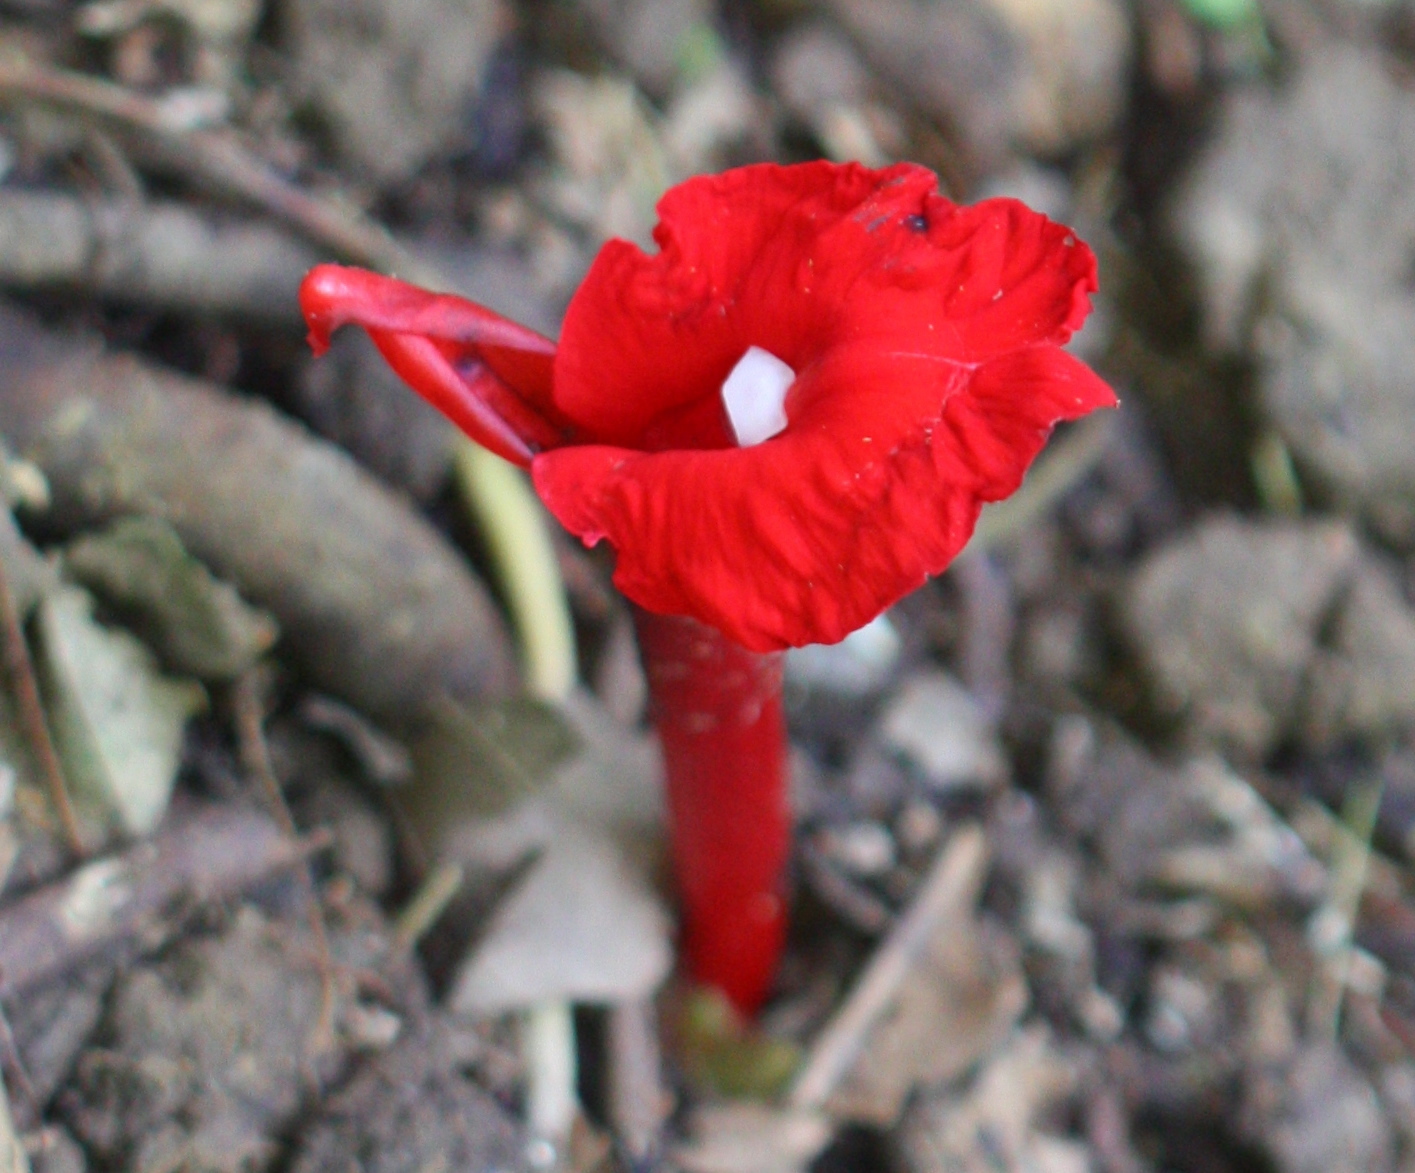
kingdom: Plantae
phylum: Tracheophyta
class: Liliopsida
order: Zingiberales
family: Zingiberaceae
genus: Etlingera
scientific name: Etlingera brevilabrum
